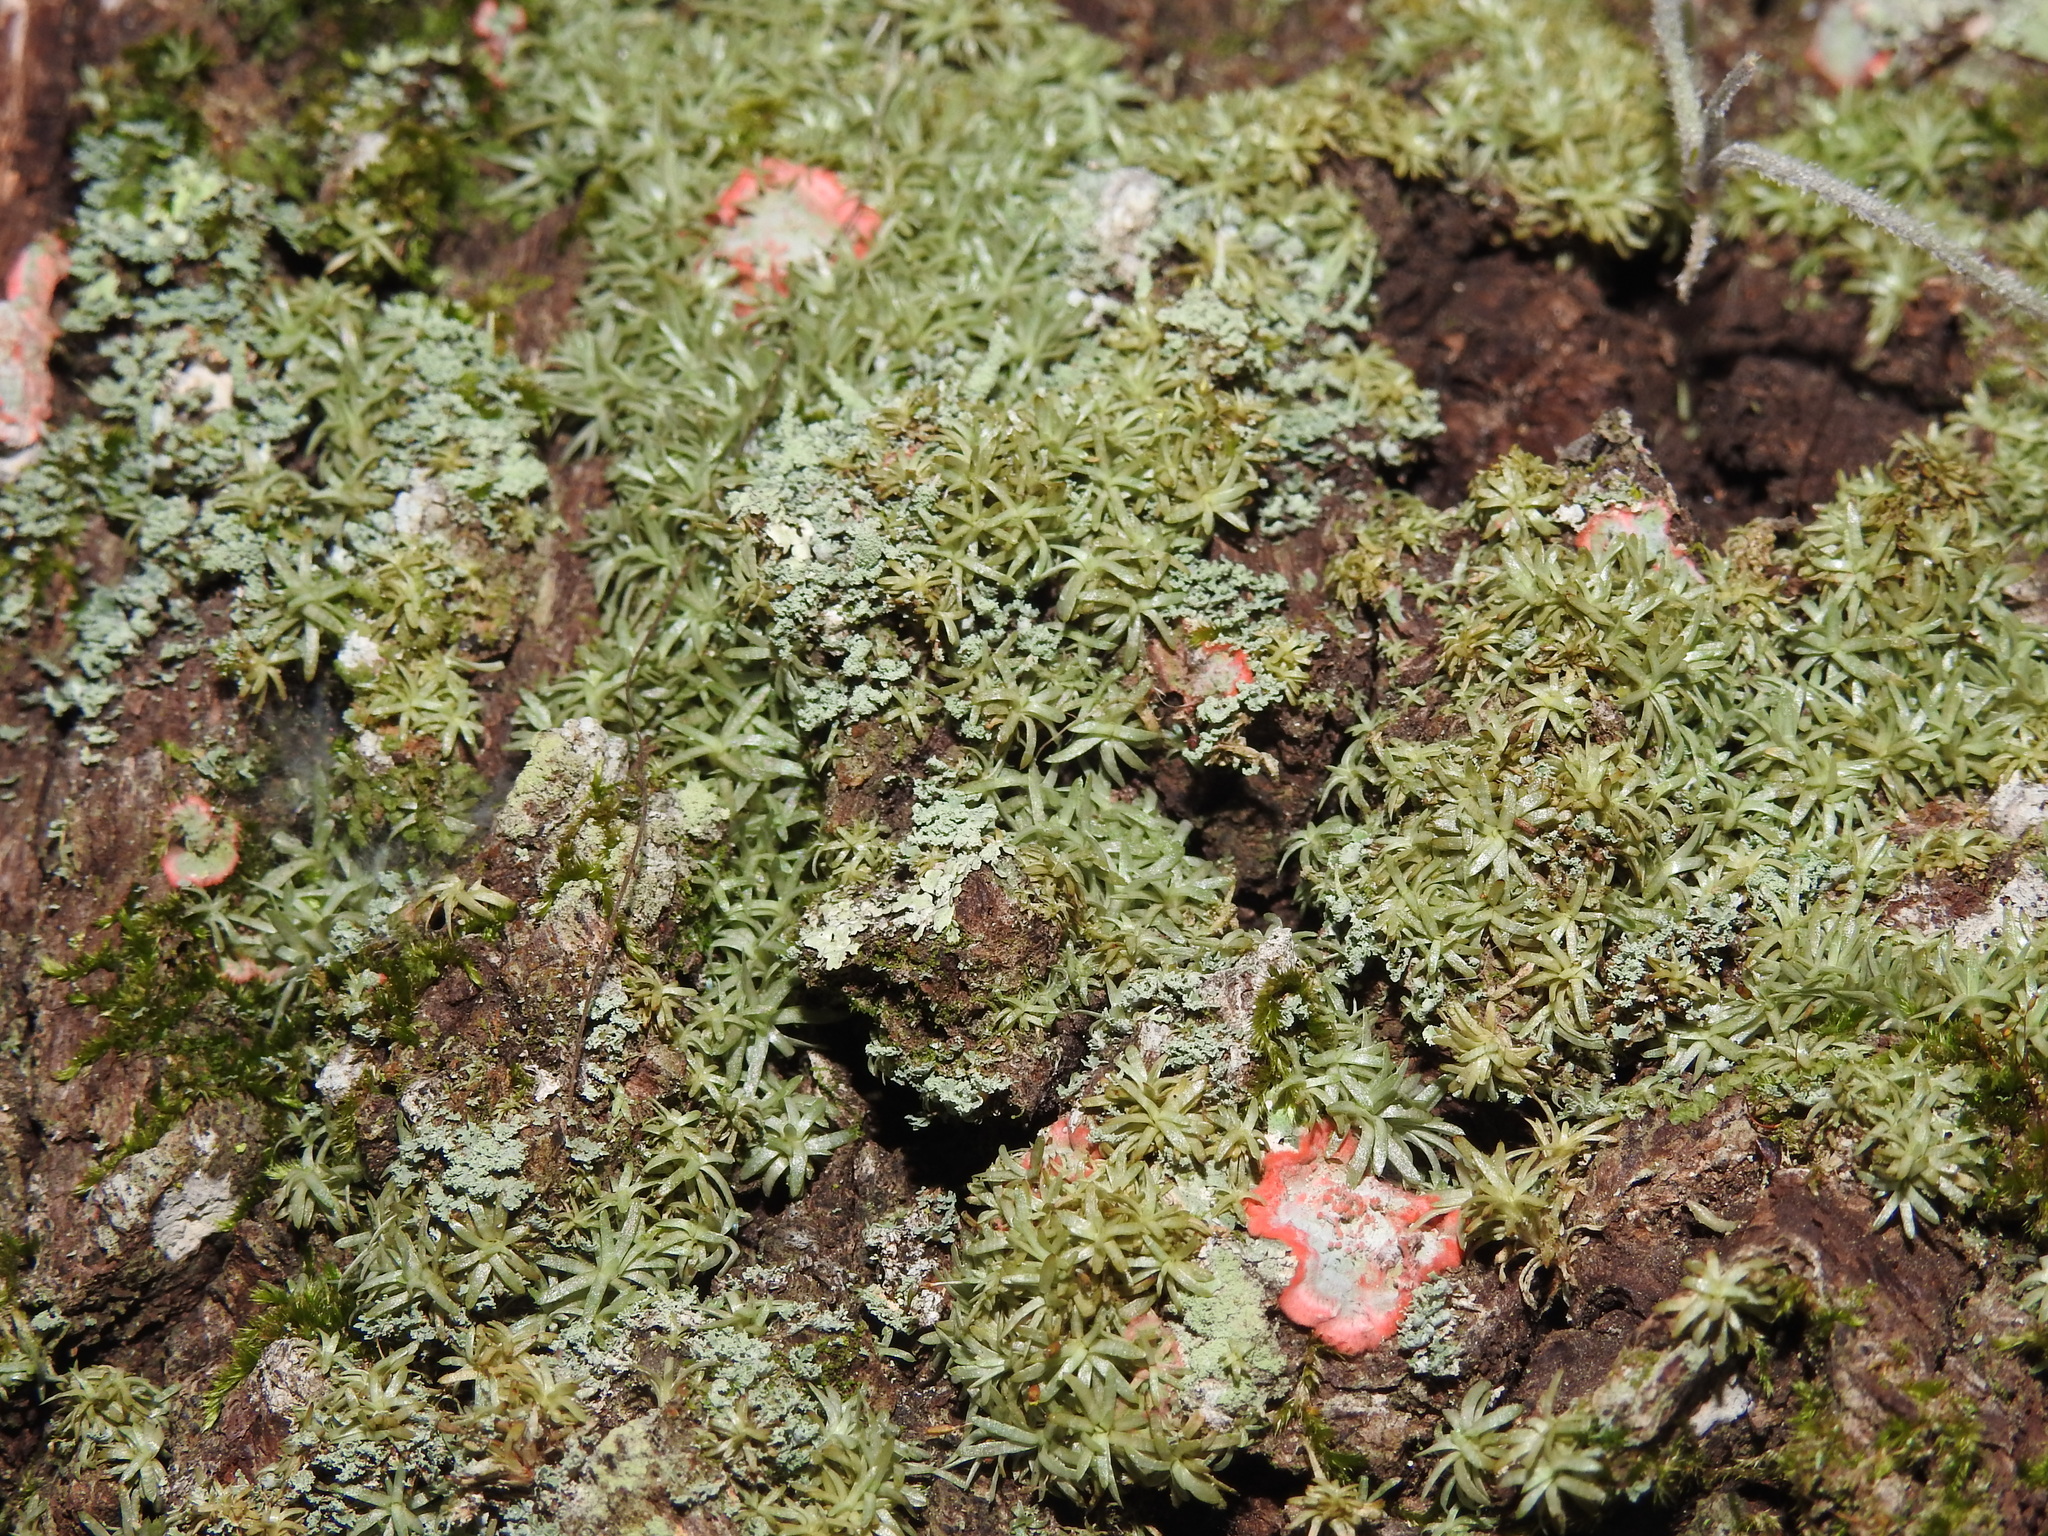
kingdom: Plantae
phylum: Bryophyta
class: Bryopsida
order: Dicranales
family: Octoblepharaceae
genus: Octoblepharum
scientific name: Octoblepharum albidum
